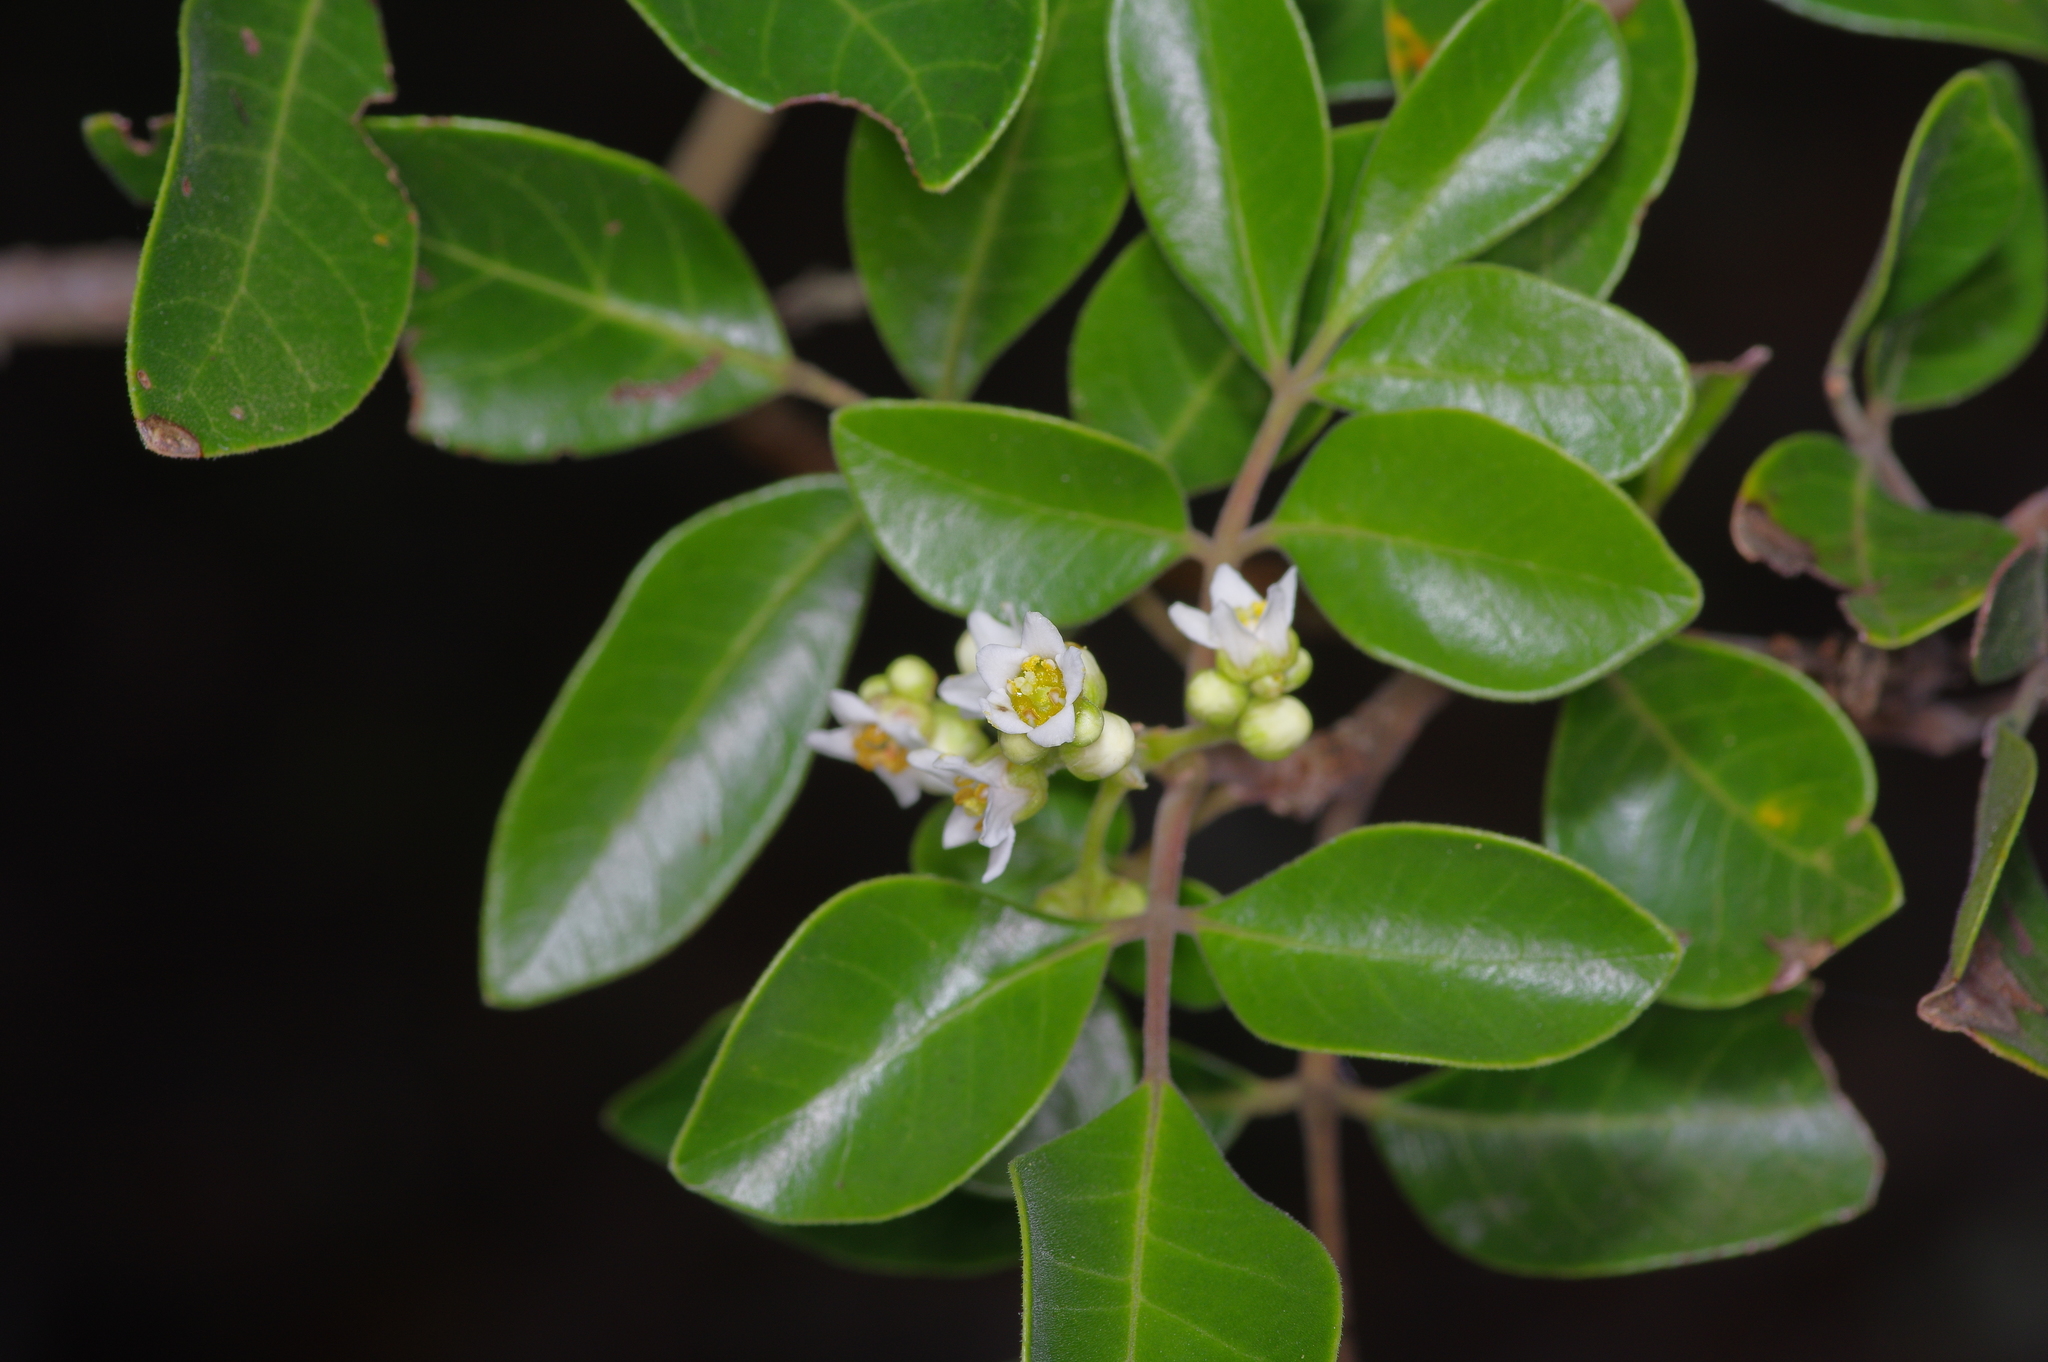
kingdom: Plantae
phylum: Tracheophyta
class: Magnoliopsida
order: Sapindales
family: Anacardiaceae
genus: Rhus
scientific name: Rhus virens
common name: Evergreen sumac
